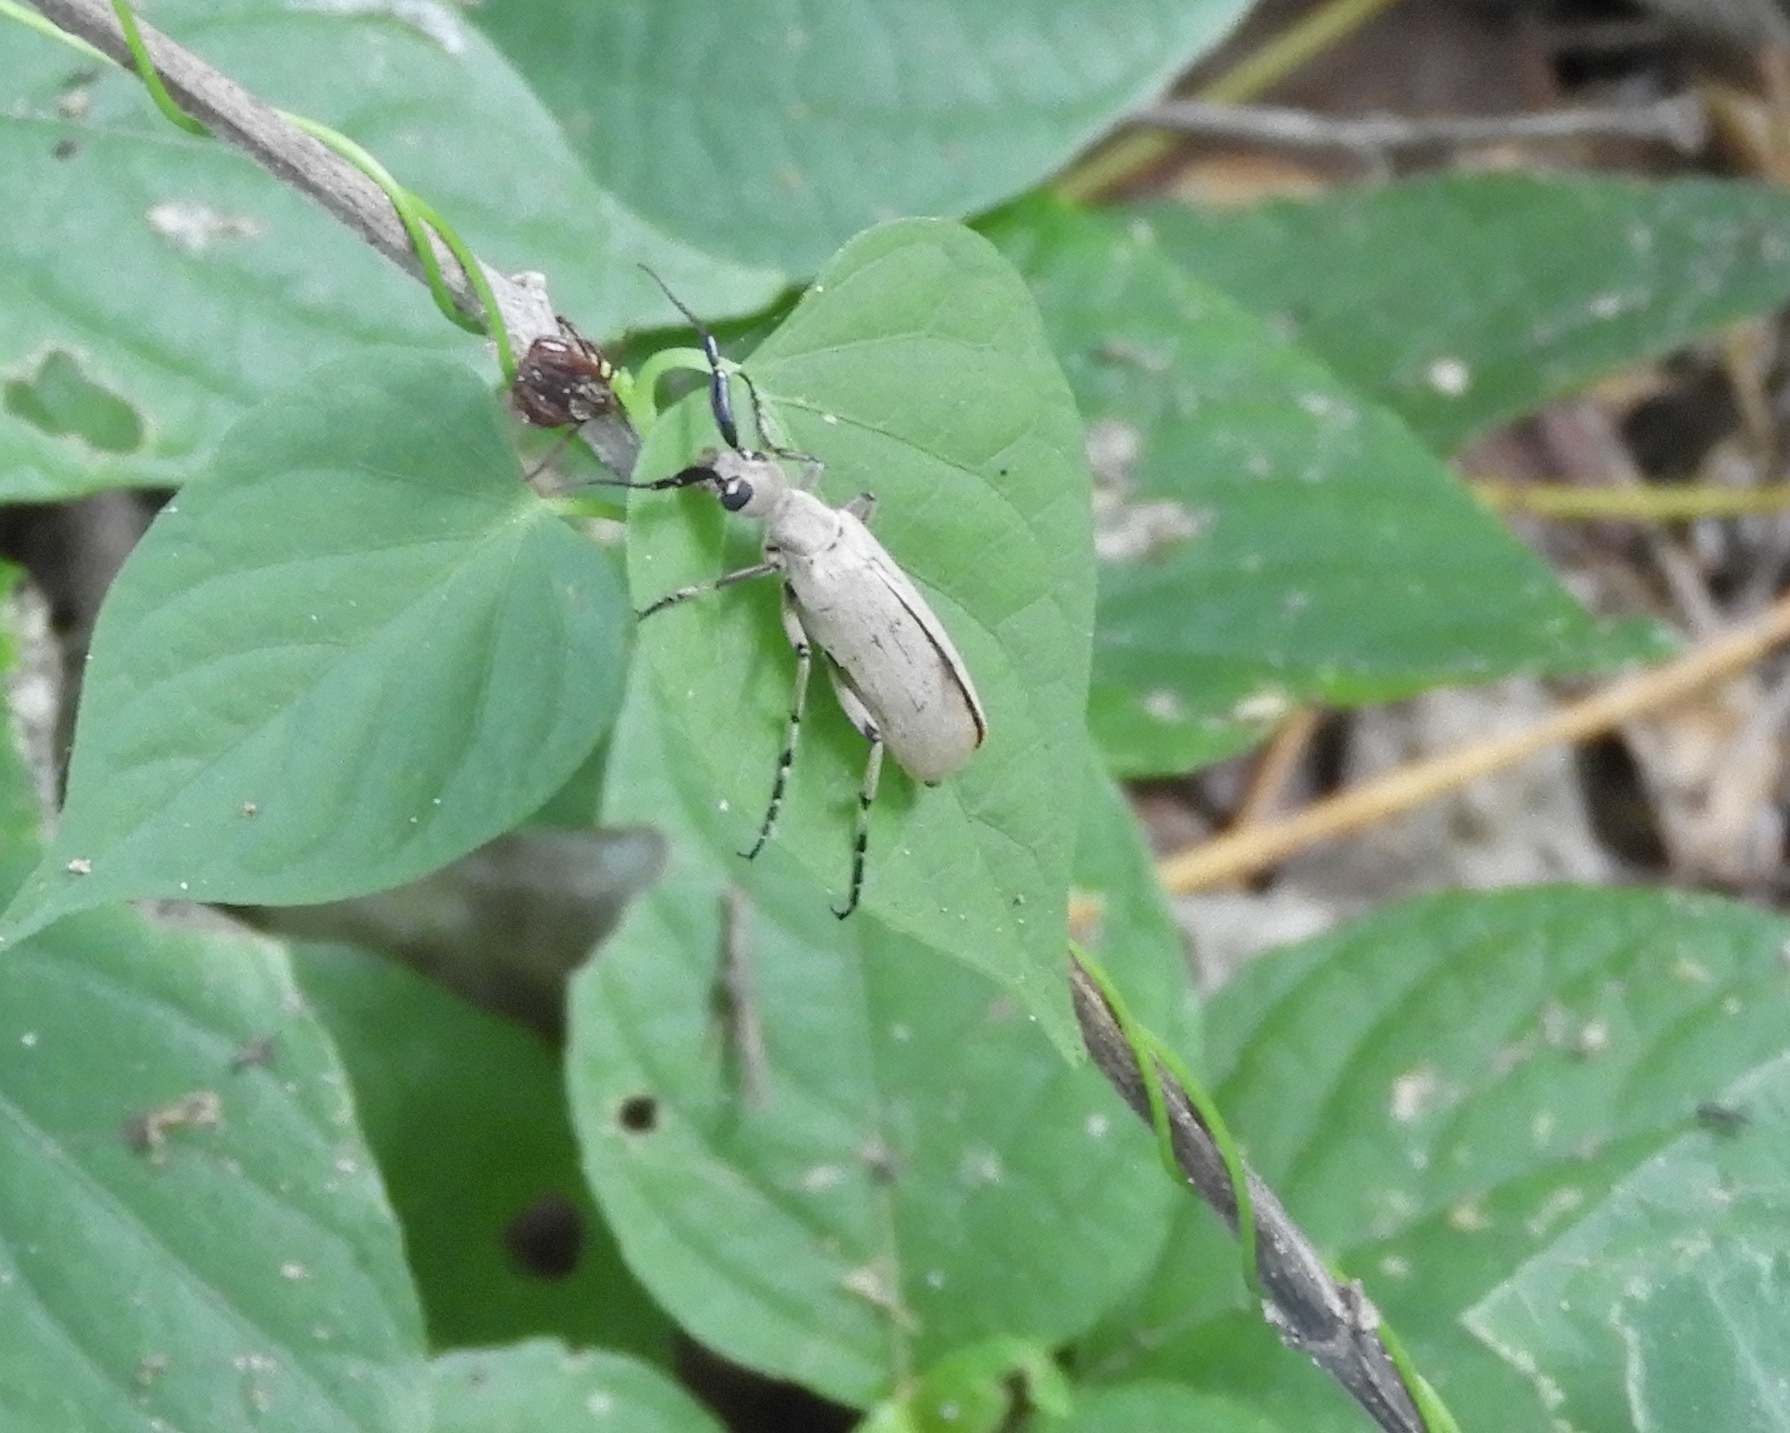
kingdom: Animalia
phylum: Arthropoda
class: Insecta
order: Coleoptera
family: Meloidae
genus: Epicauta
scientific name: Epicauta
